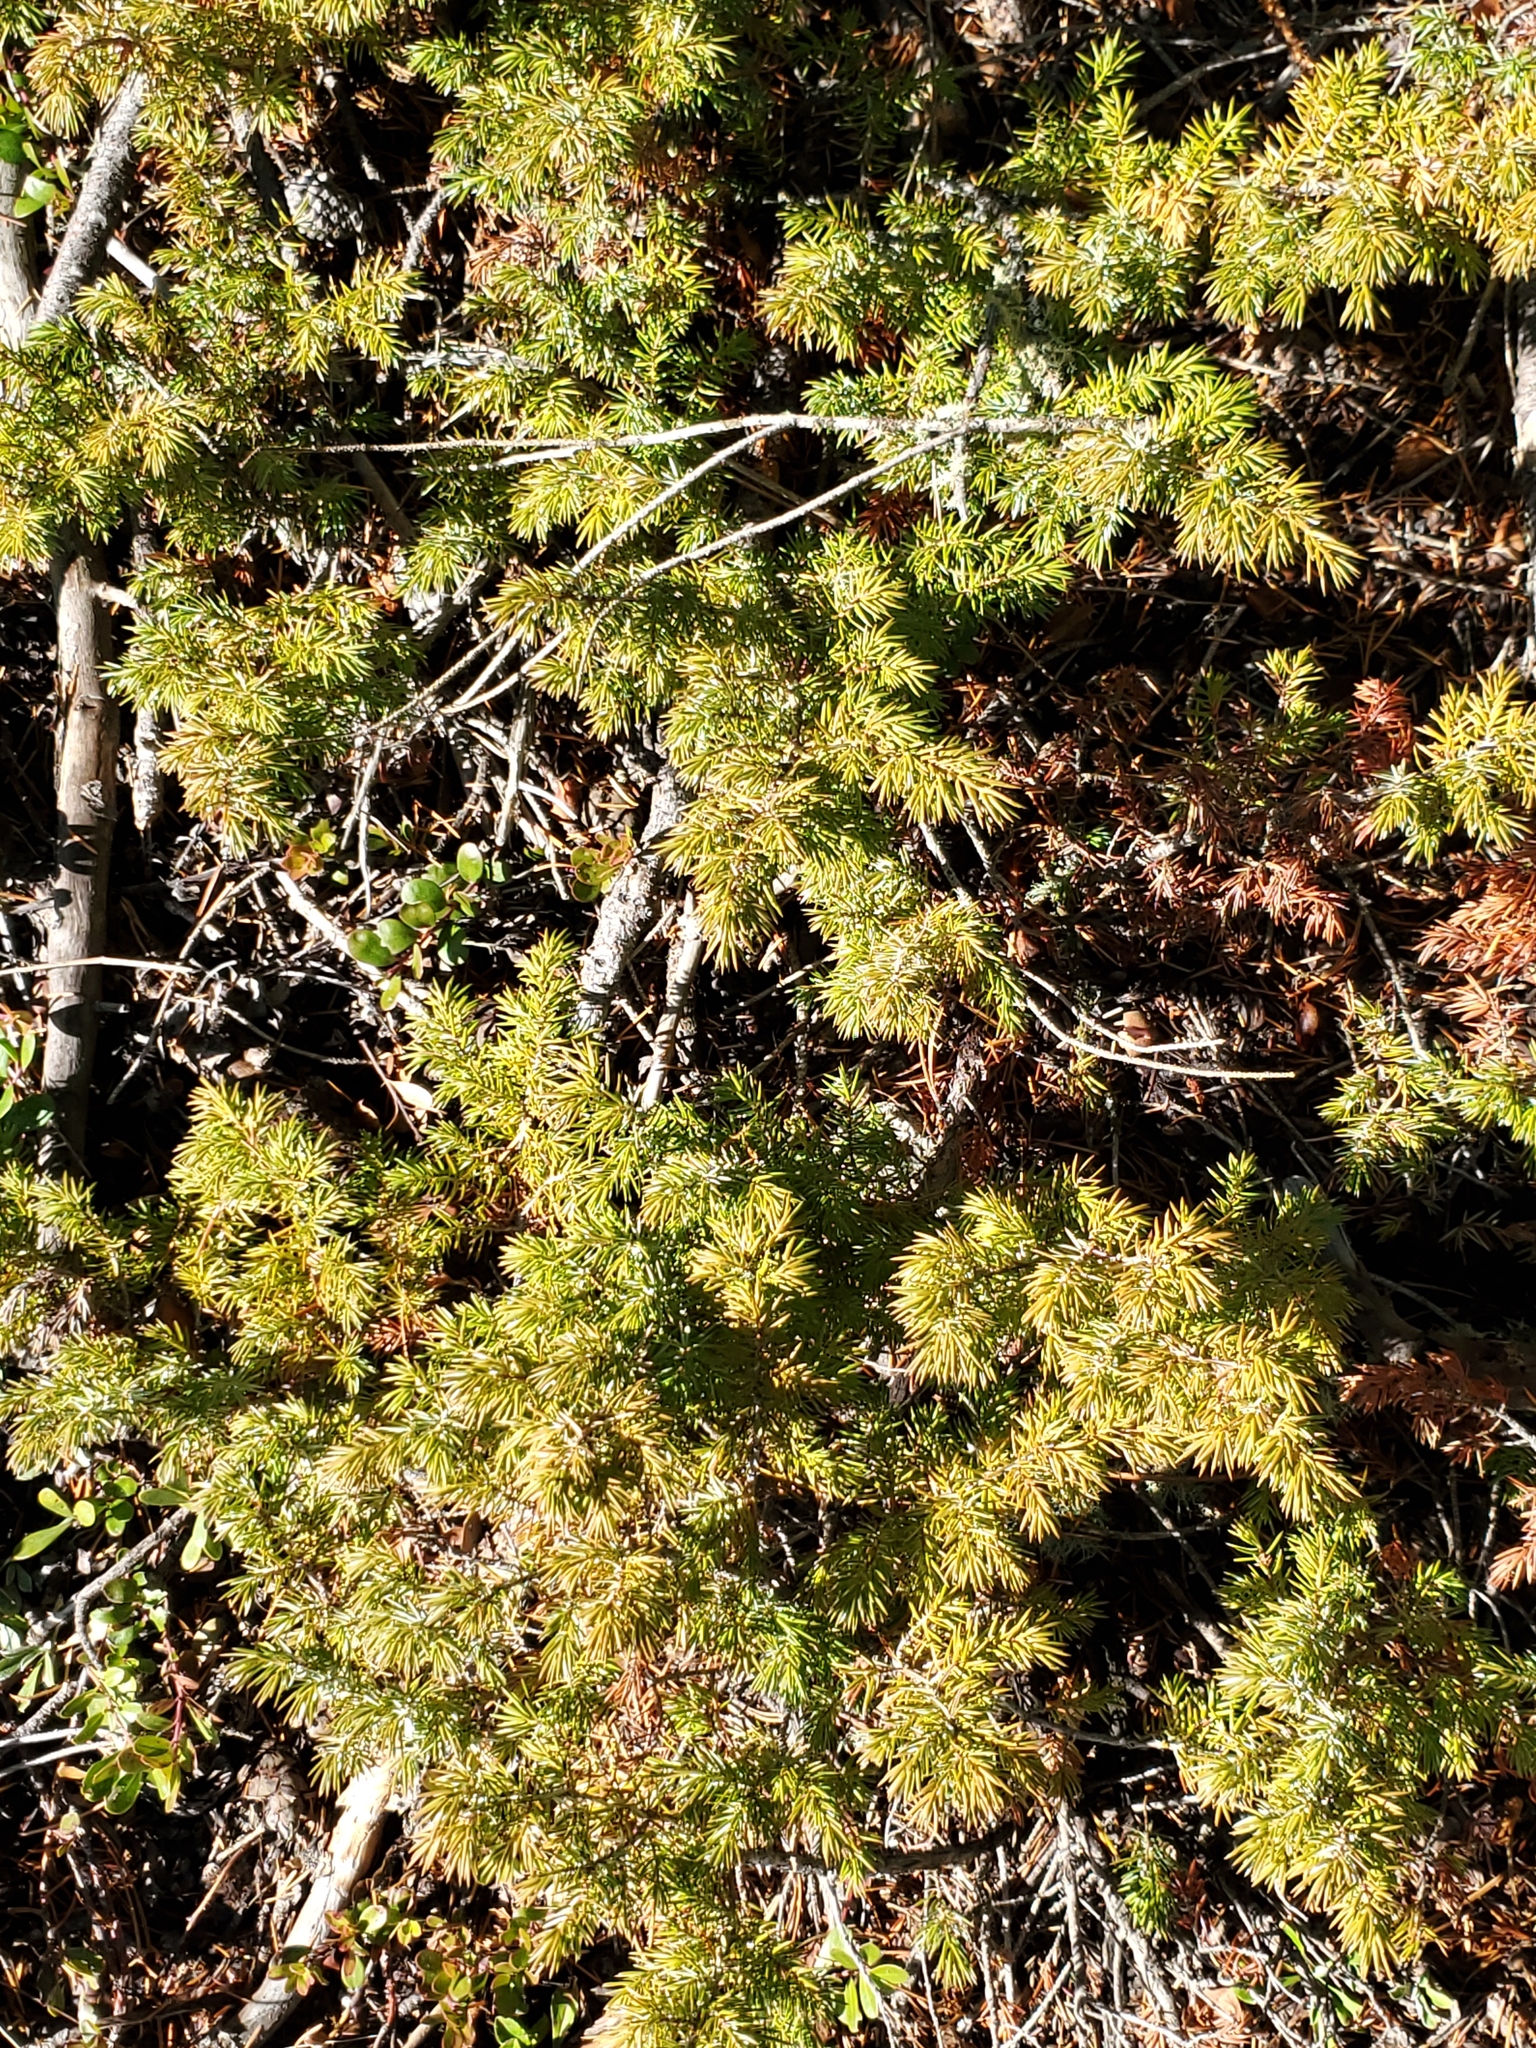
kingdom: Plantae
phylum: Tracheophyta
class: Pinopsida
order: Pinales
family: Cupressaceae
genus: Juniperus
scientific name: Juniperus communis
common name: Common juniper
